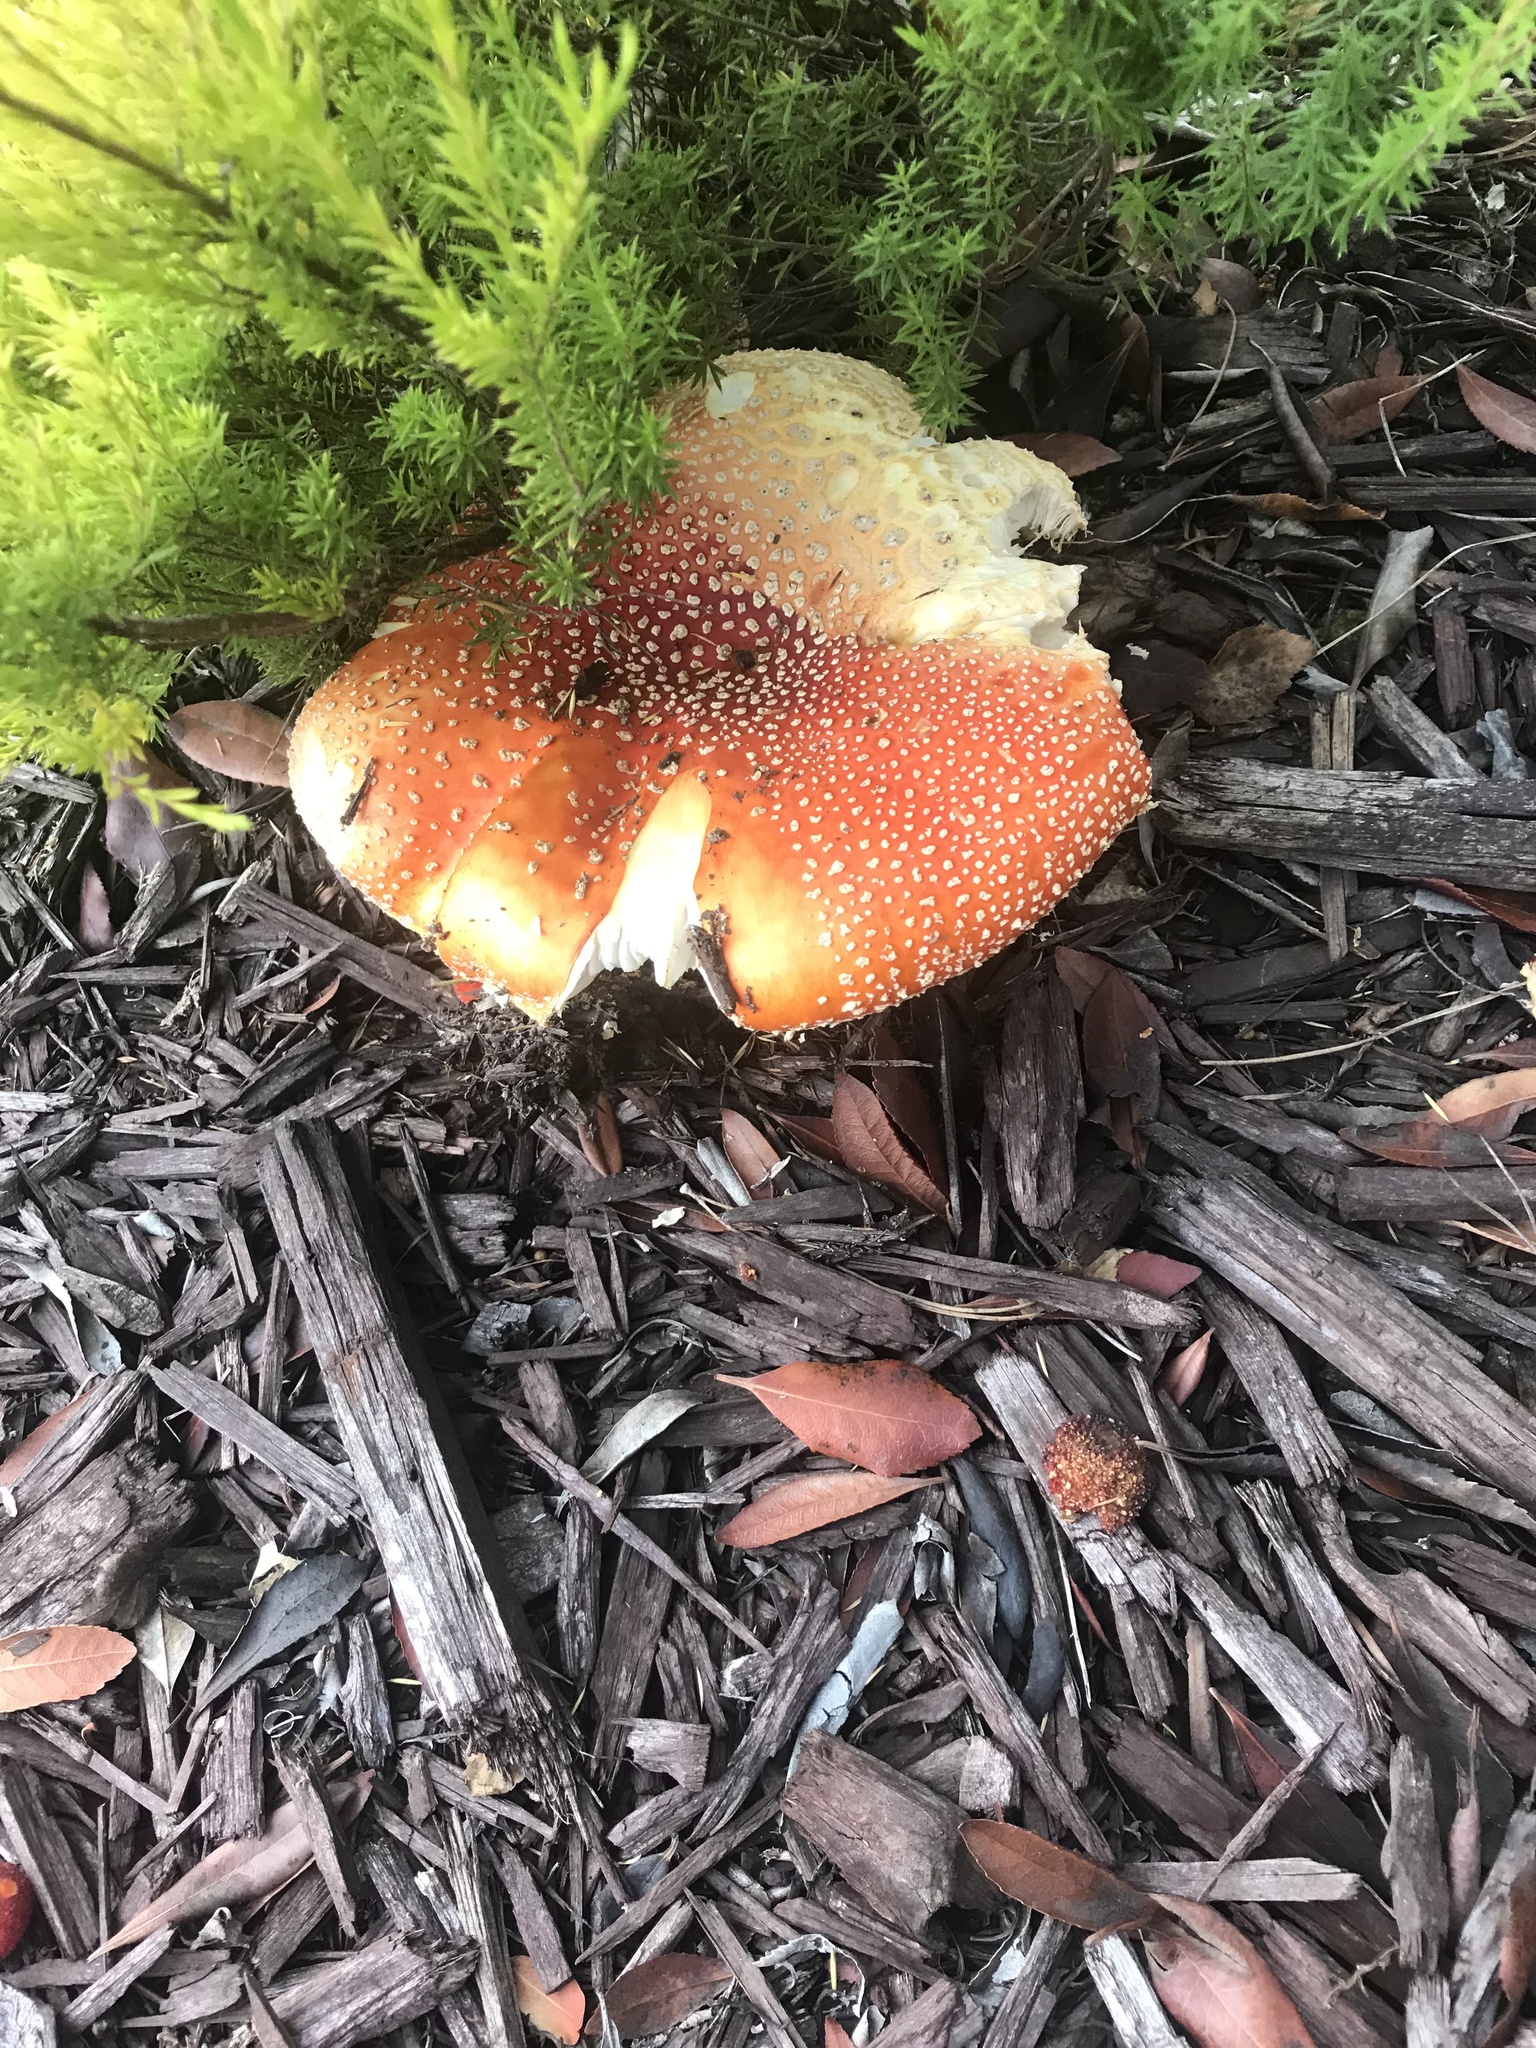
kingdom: Fungi
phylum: Basidiomycota
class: Agaricomycetes
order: Agaricales
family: Amanitaceae
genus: Amanita
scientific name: Amanita muscaria
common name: Fly agaric
